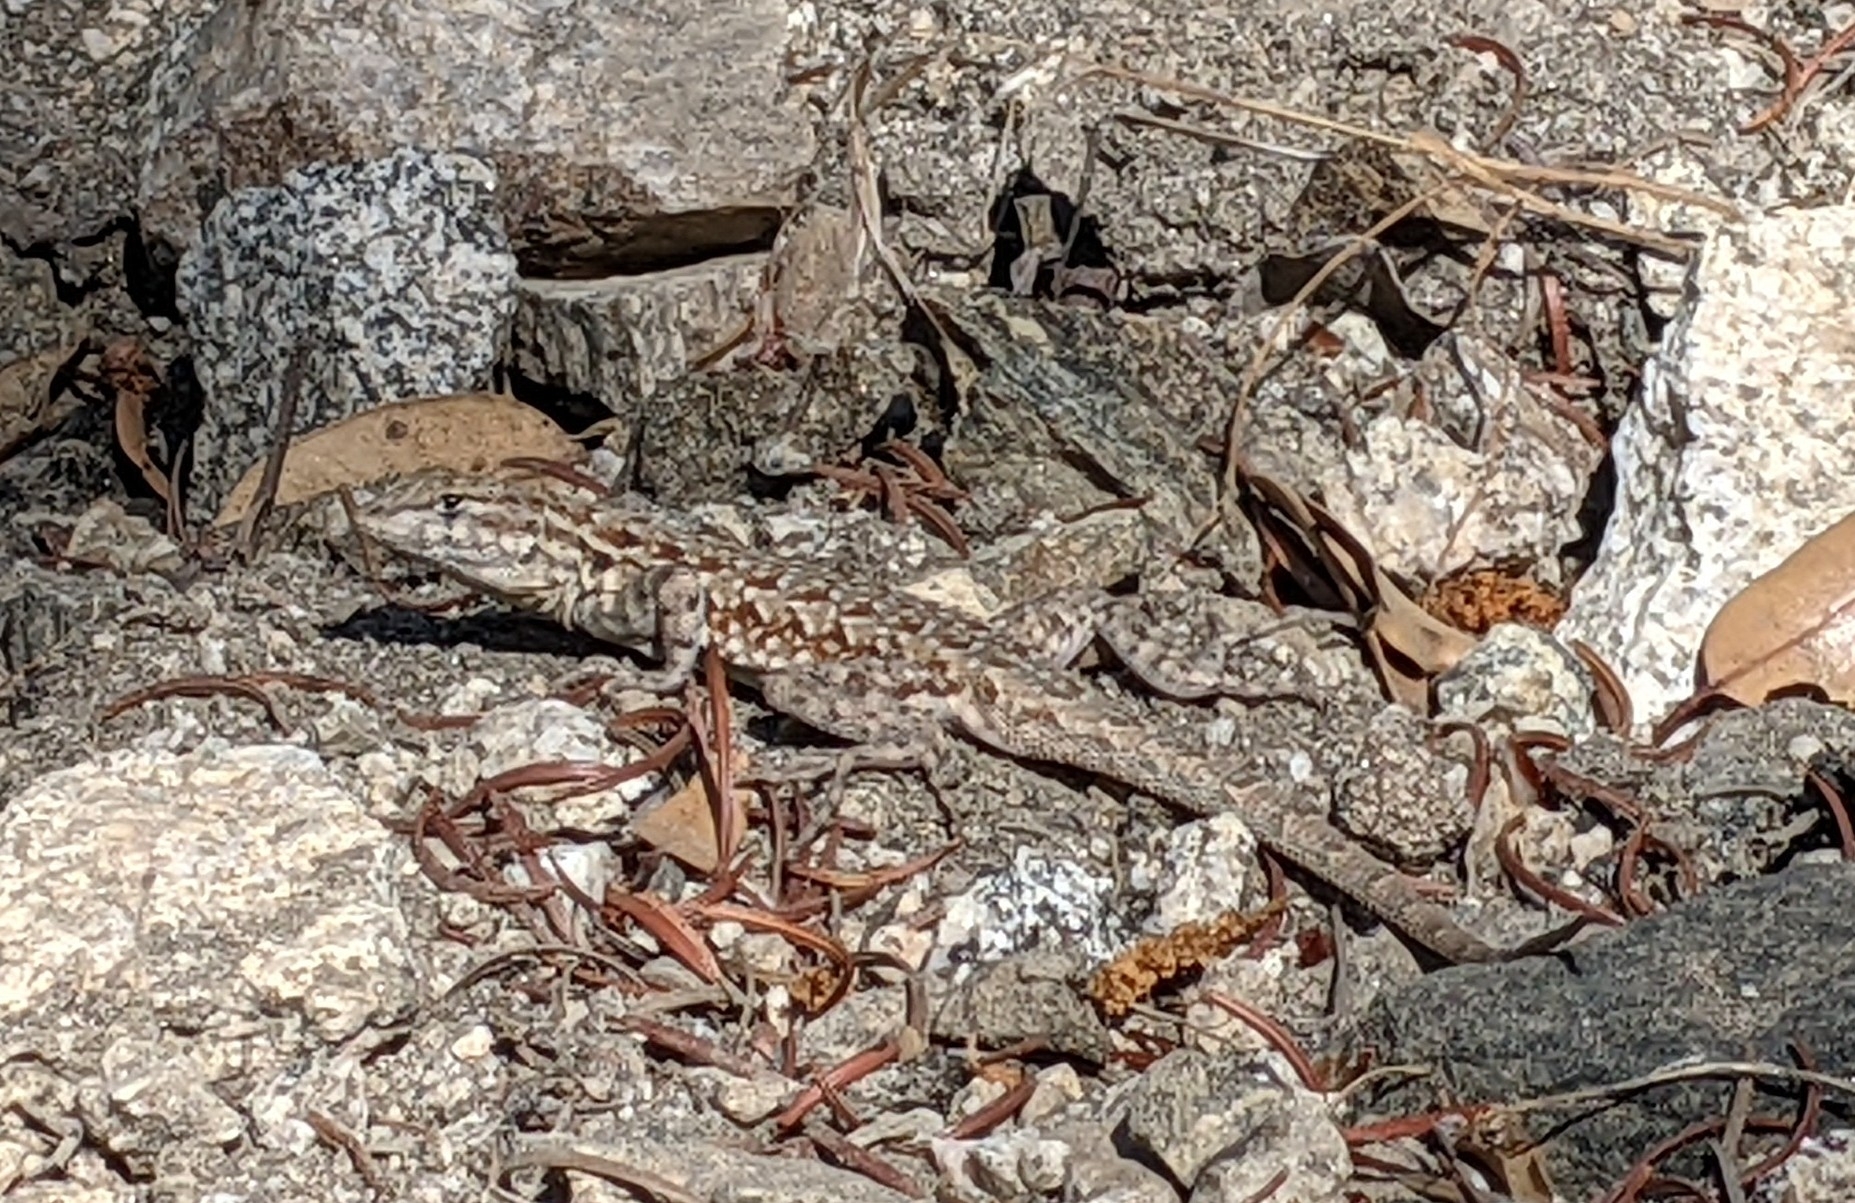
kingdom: Animalia
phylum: Chordata
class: Squamata
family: Phrynosomatidae
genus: Uta
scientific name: Uta stansburiana
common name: Side-blotched lizard
